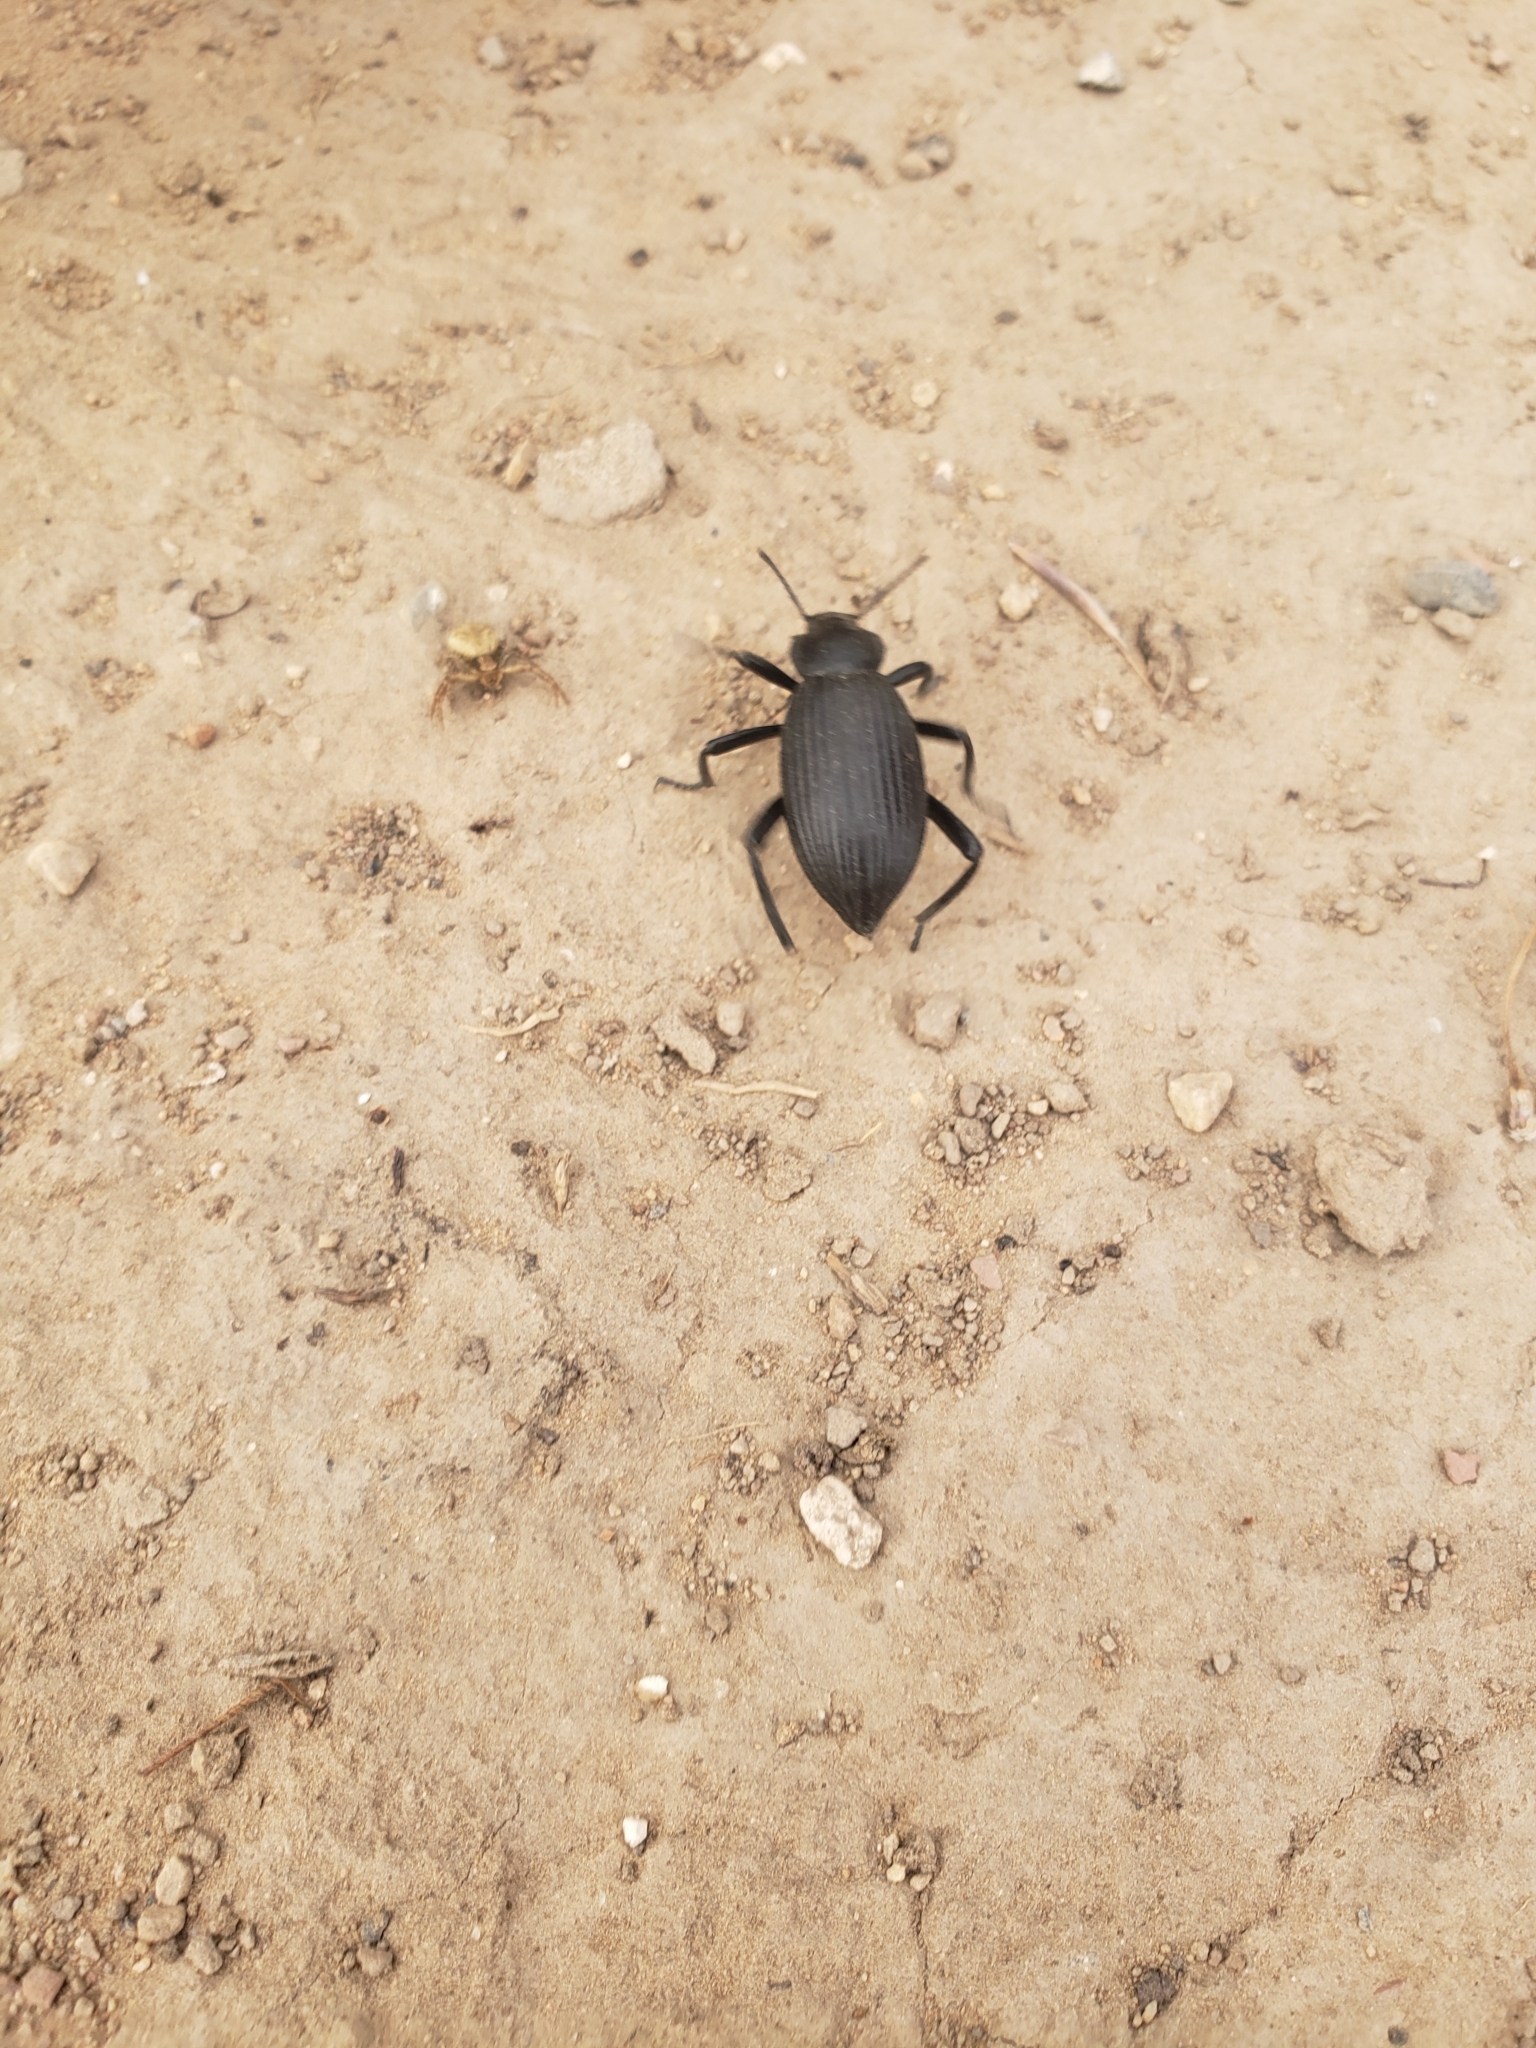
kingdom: Animalia
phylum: Arthropoda
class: Insecta
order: Coleoptera
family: Tenebrionidae
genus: Eleodes
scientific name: Eleodes hispilabris
